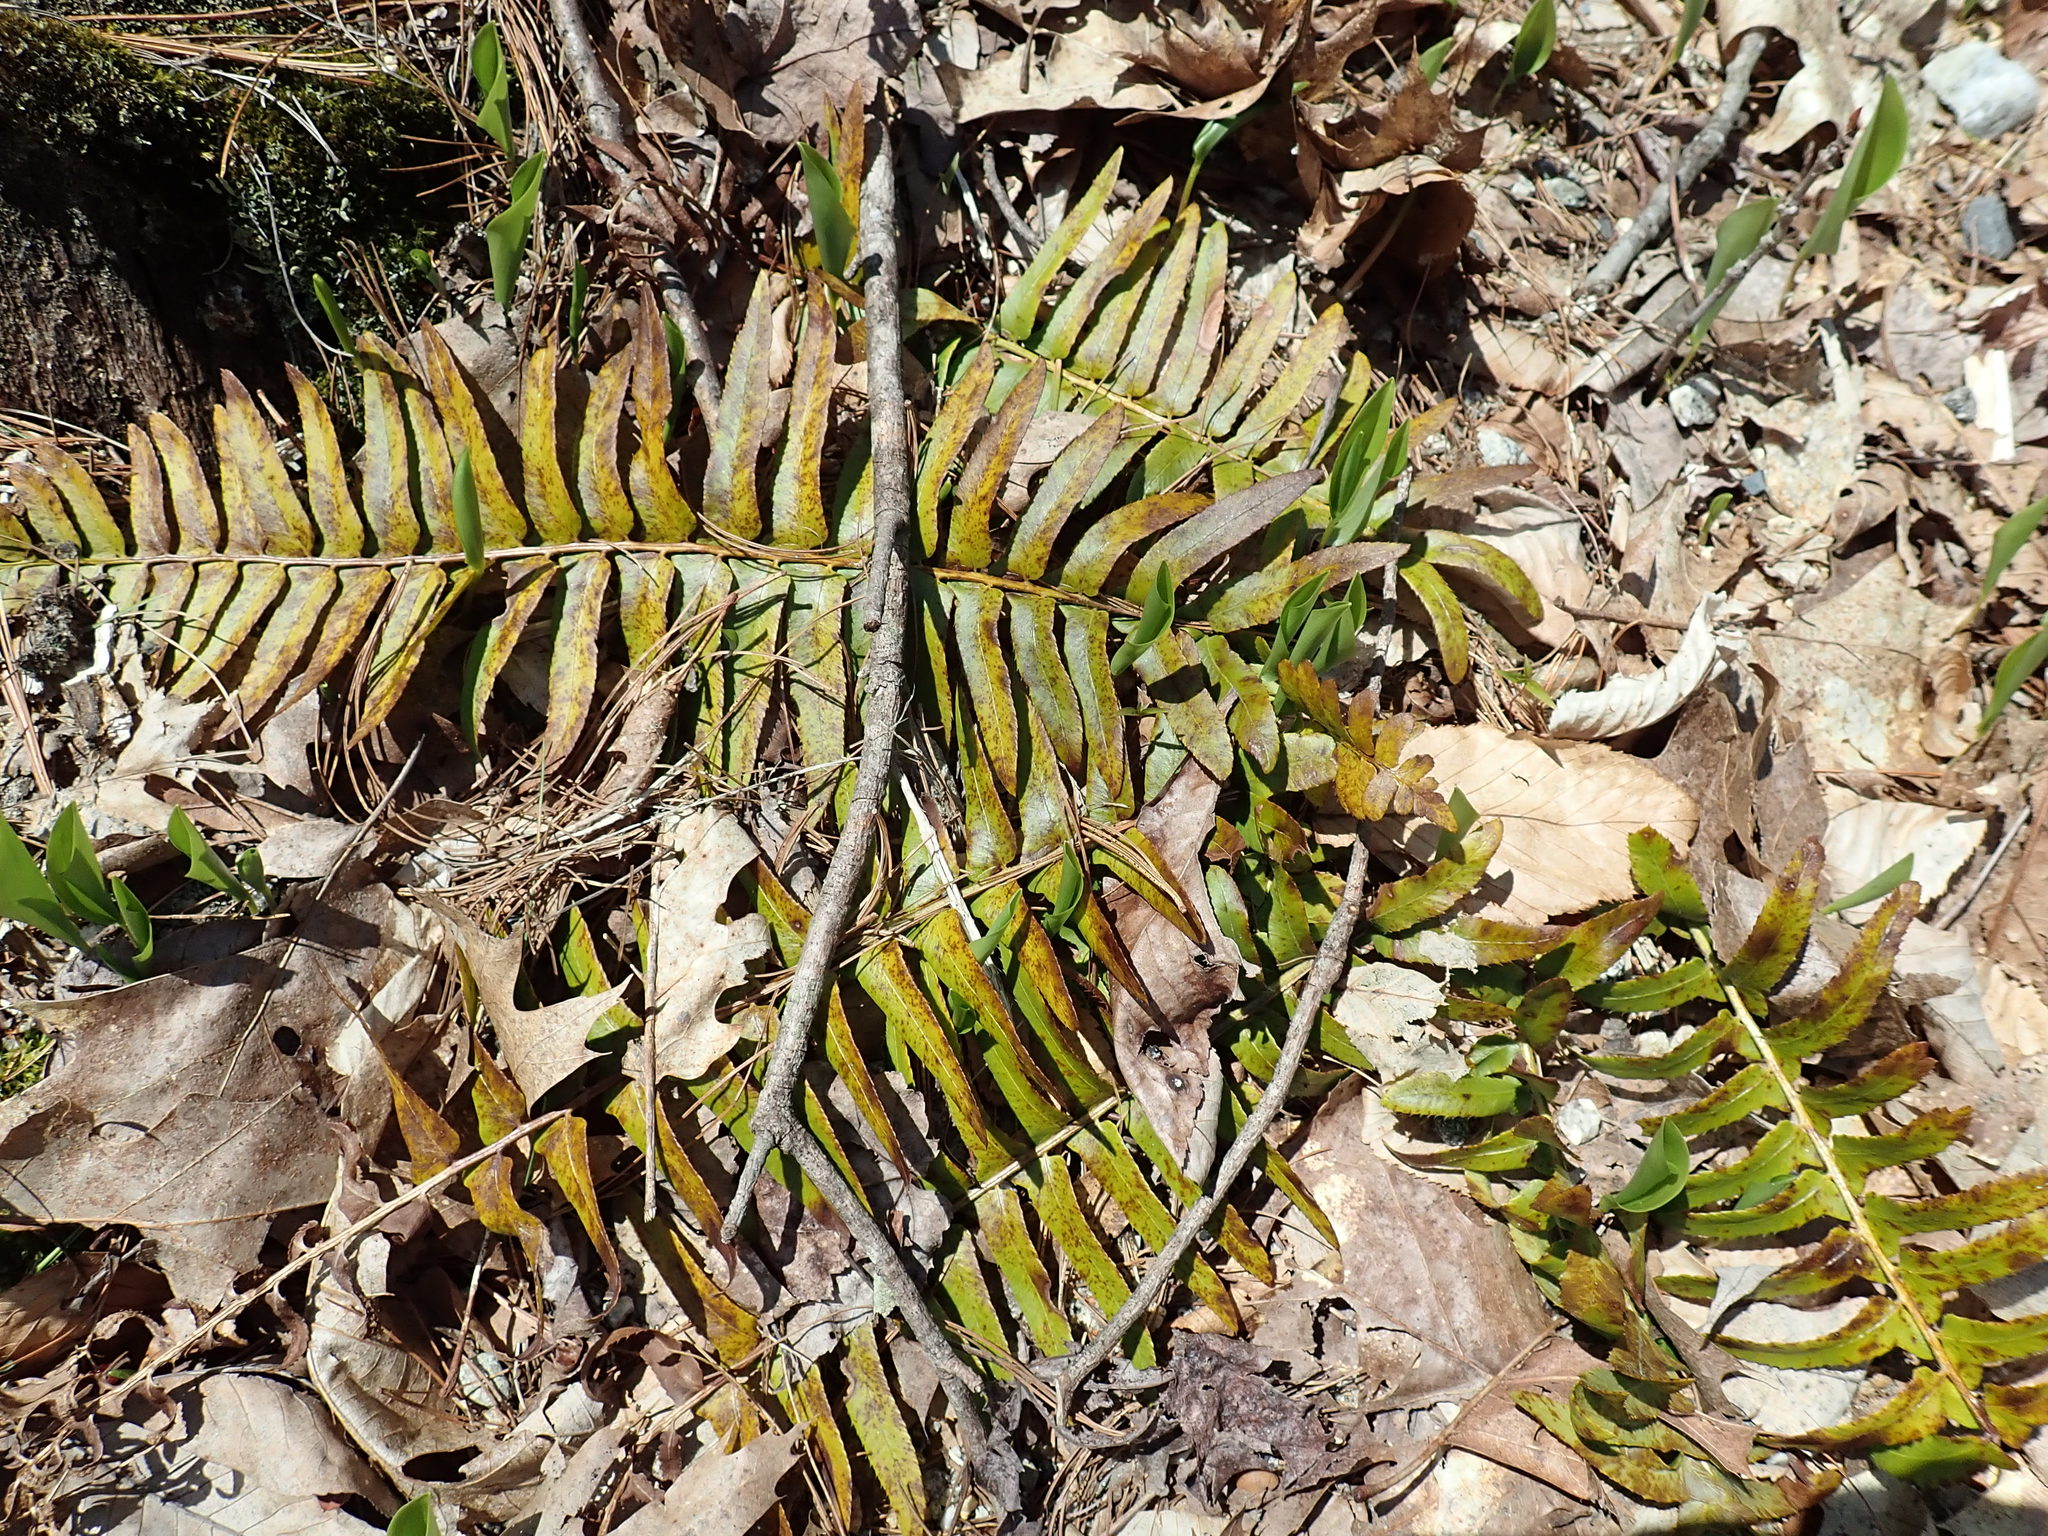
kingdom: Plantae
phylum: Tracheophyta
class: Polypodiopsida
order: Polypodiales
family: Dryopteridaceae
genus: Polystichum
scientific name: Polystichum acrostichoides
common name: Christmas fern
